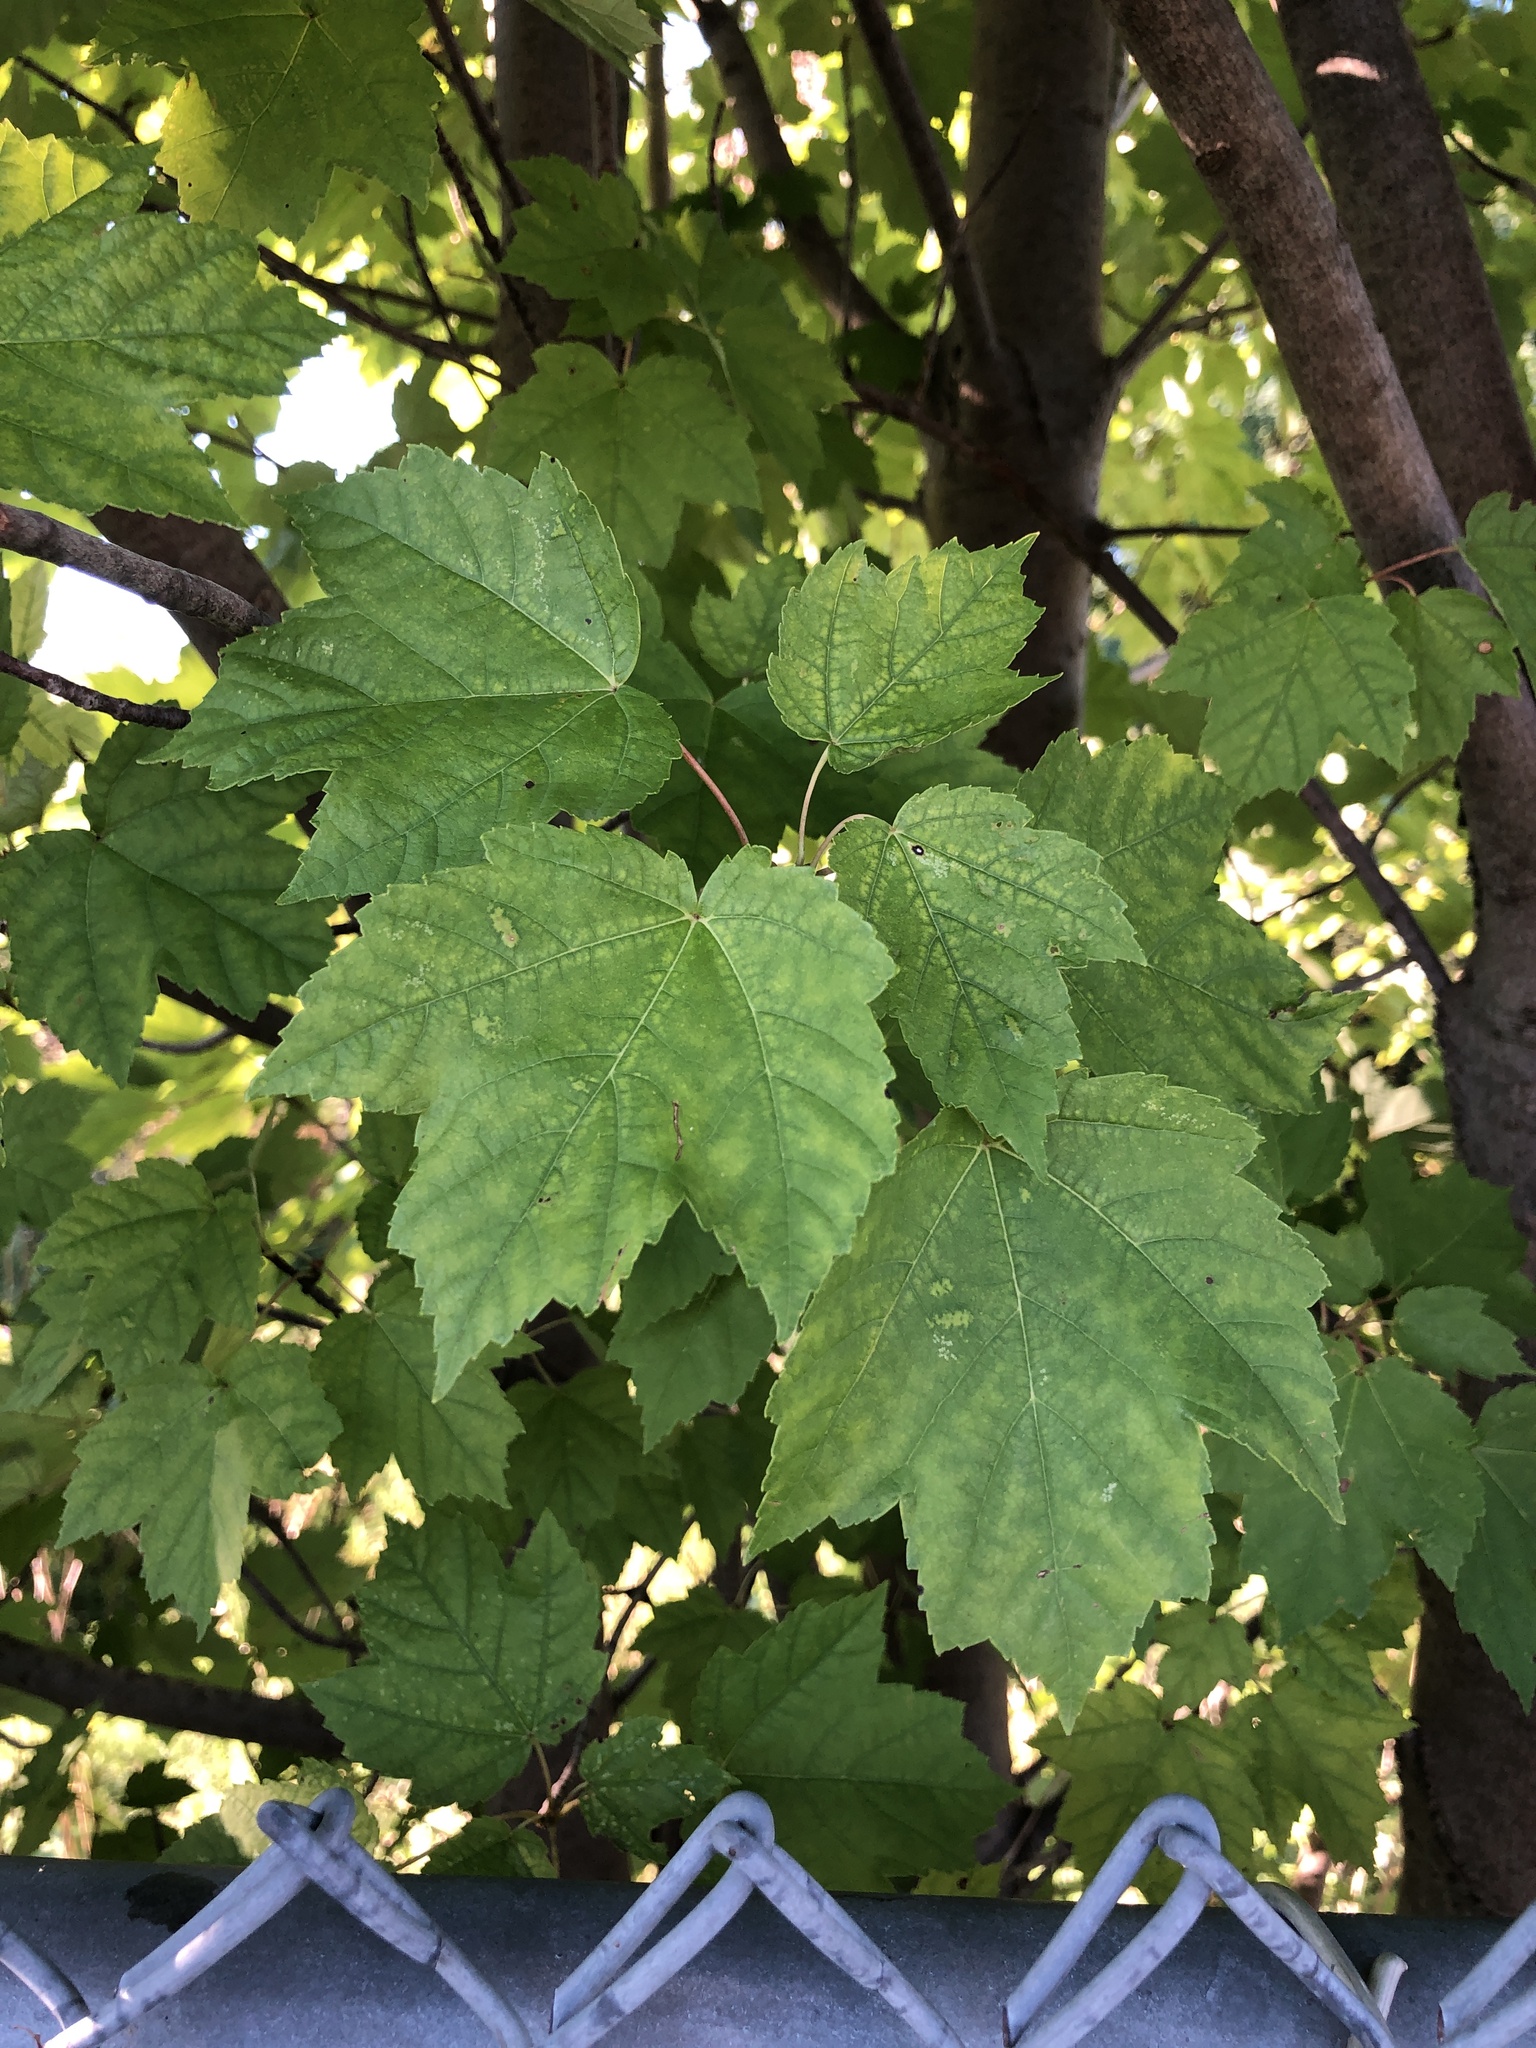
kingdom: Plantae
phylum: Tracheophyta
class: Magnoliopsida
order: Sapindales
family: Sapindaceae
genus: Acer
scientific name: Acer rubrum
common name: Red maple
